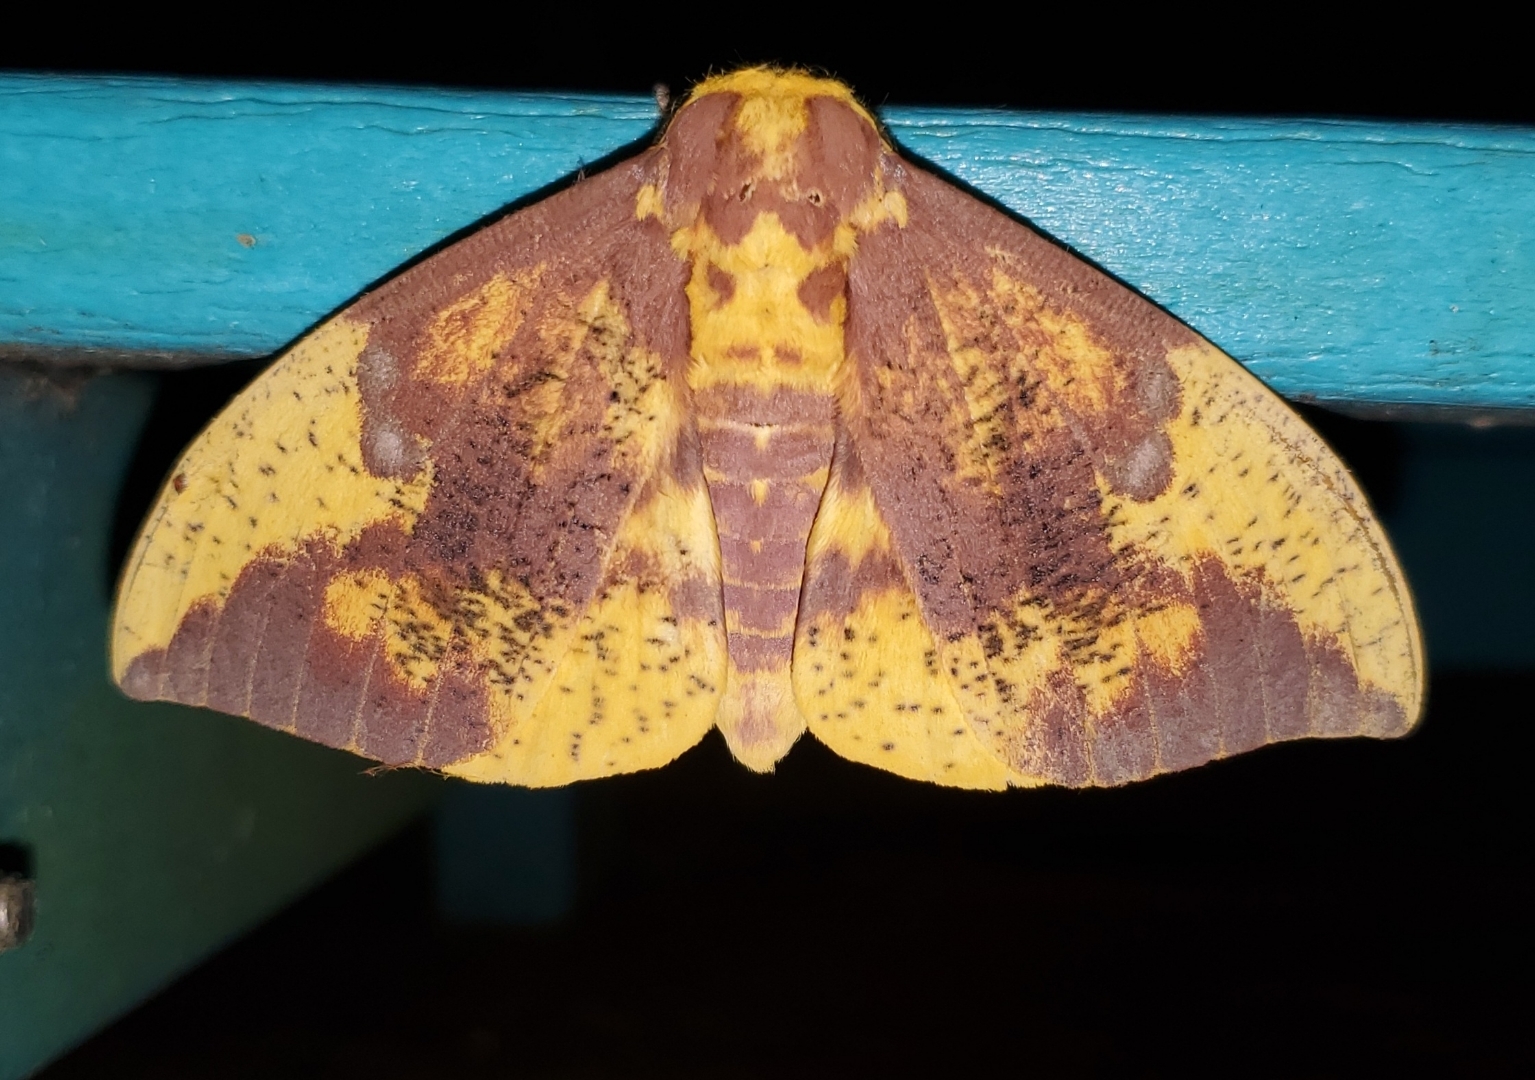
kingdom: Animalia
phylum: Arthropoda
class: Insecta
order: Lepidoptera
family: Saturniidae
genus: Eacles
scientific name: Eacles imperialis
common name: Imperial moth
